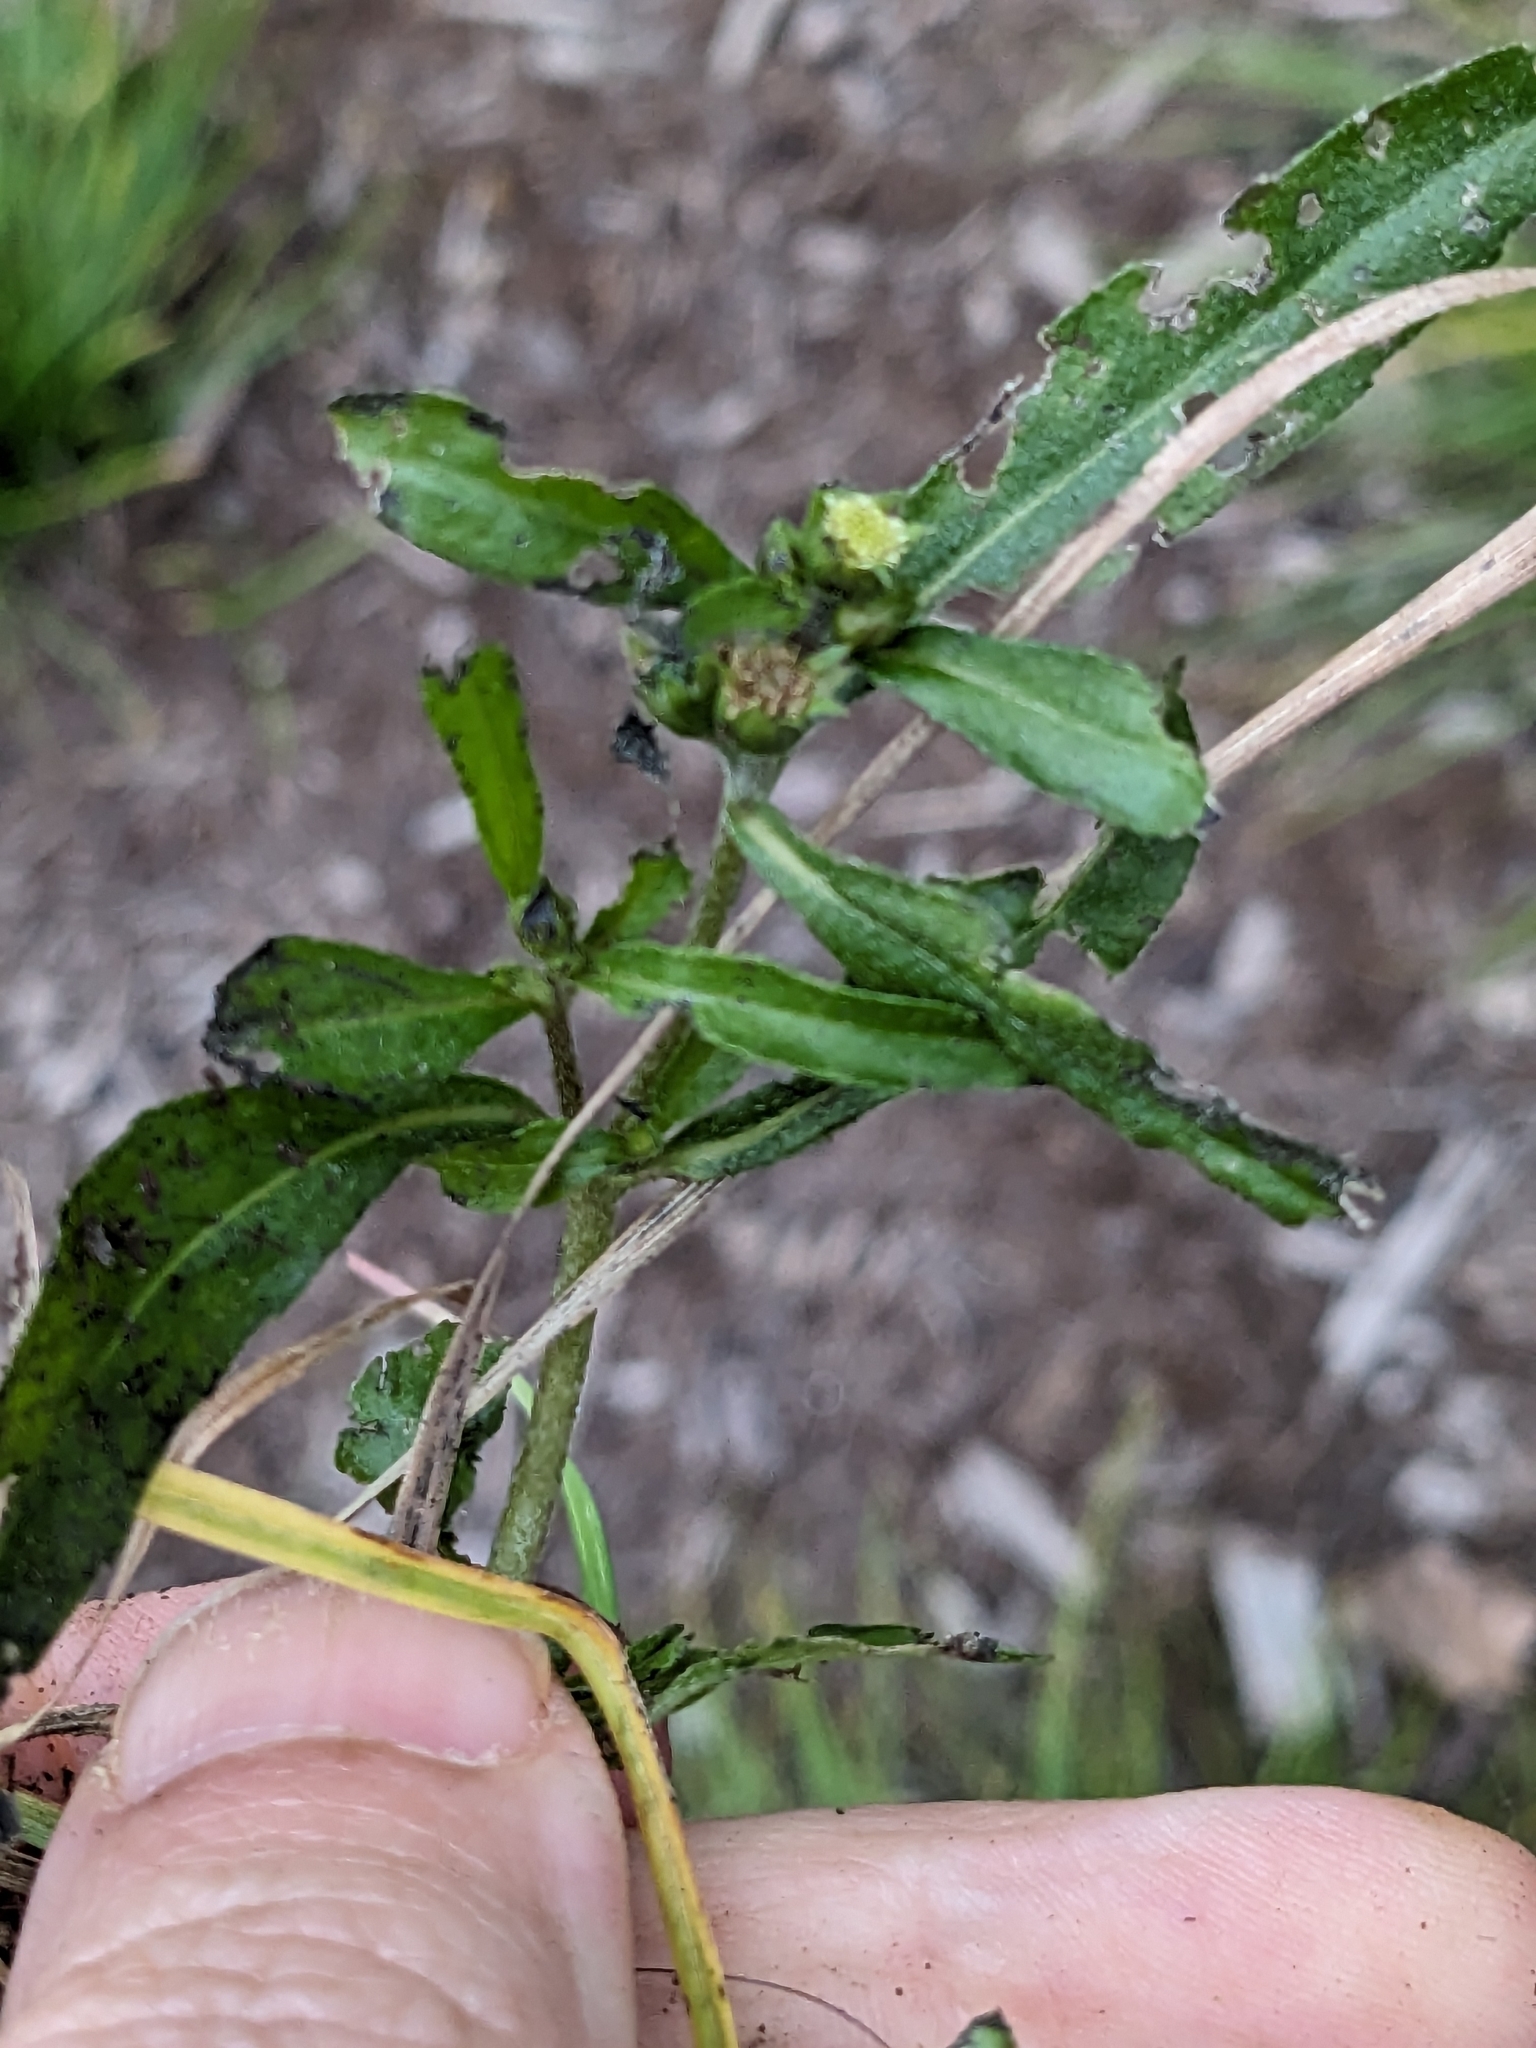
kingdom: Plantae
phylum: Tracheophyta
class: Magnoliopsida
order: Asterales
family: Asteraceae
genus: Eclipta
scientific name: Eclipta prostrata
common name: False daisy
